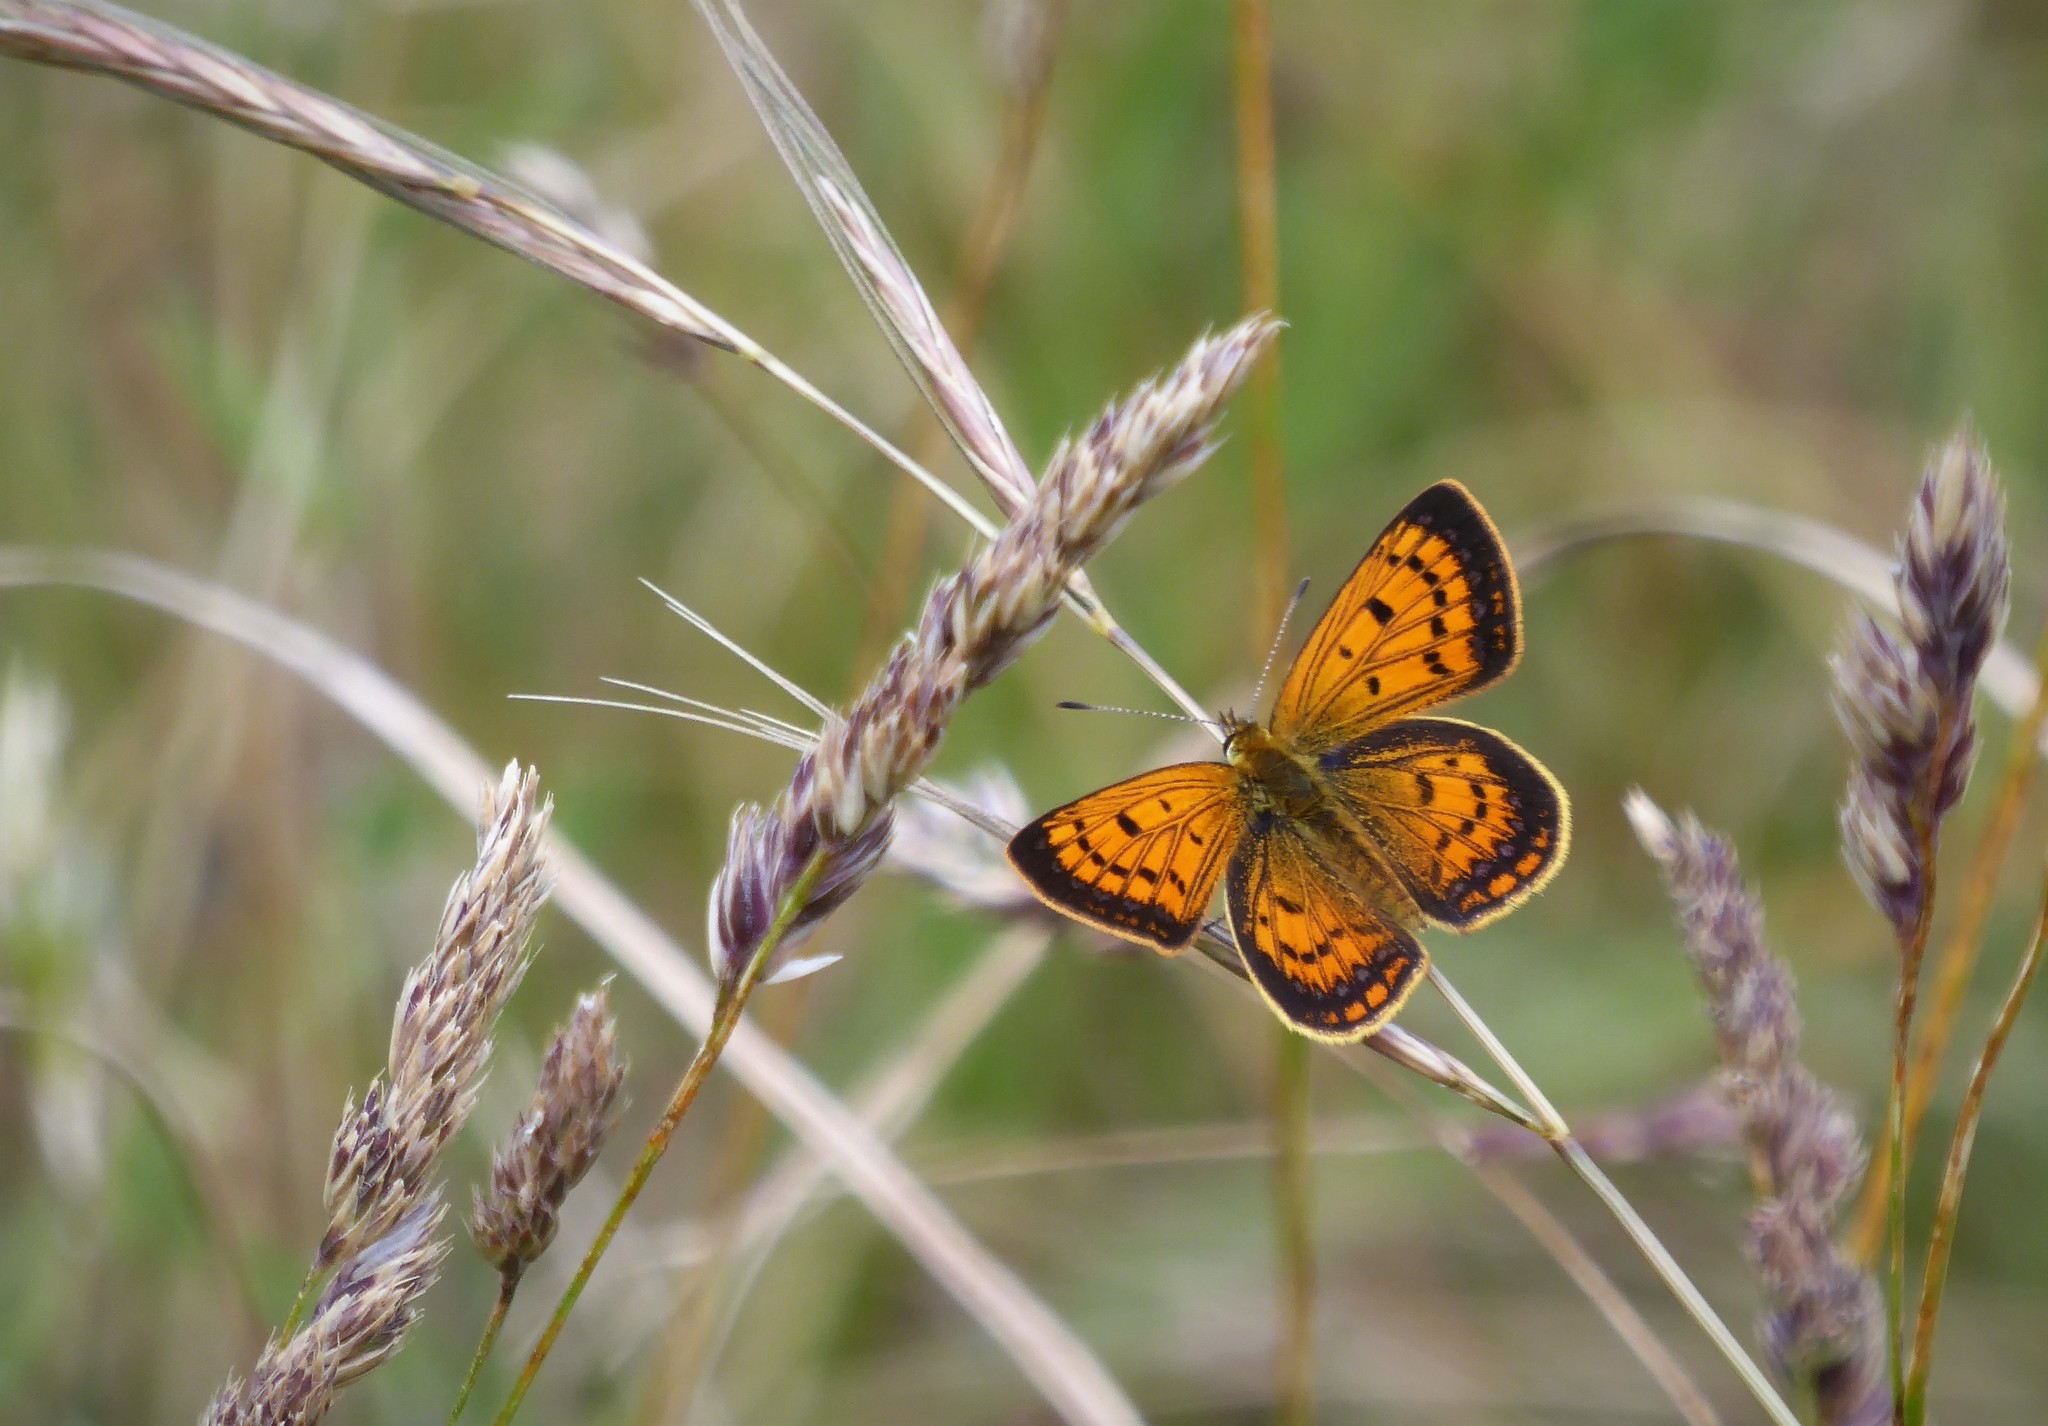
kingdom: Animalia
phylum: Arthropoda
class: Insecta
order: Lepidoptera
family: Lycaenidae
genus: Lycaena
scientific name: Lycaena
